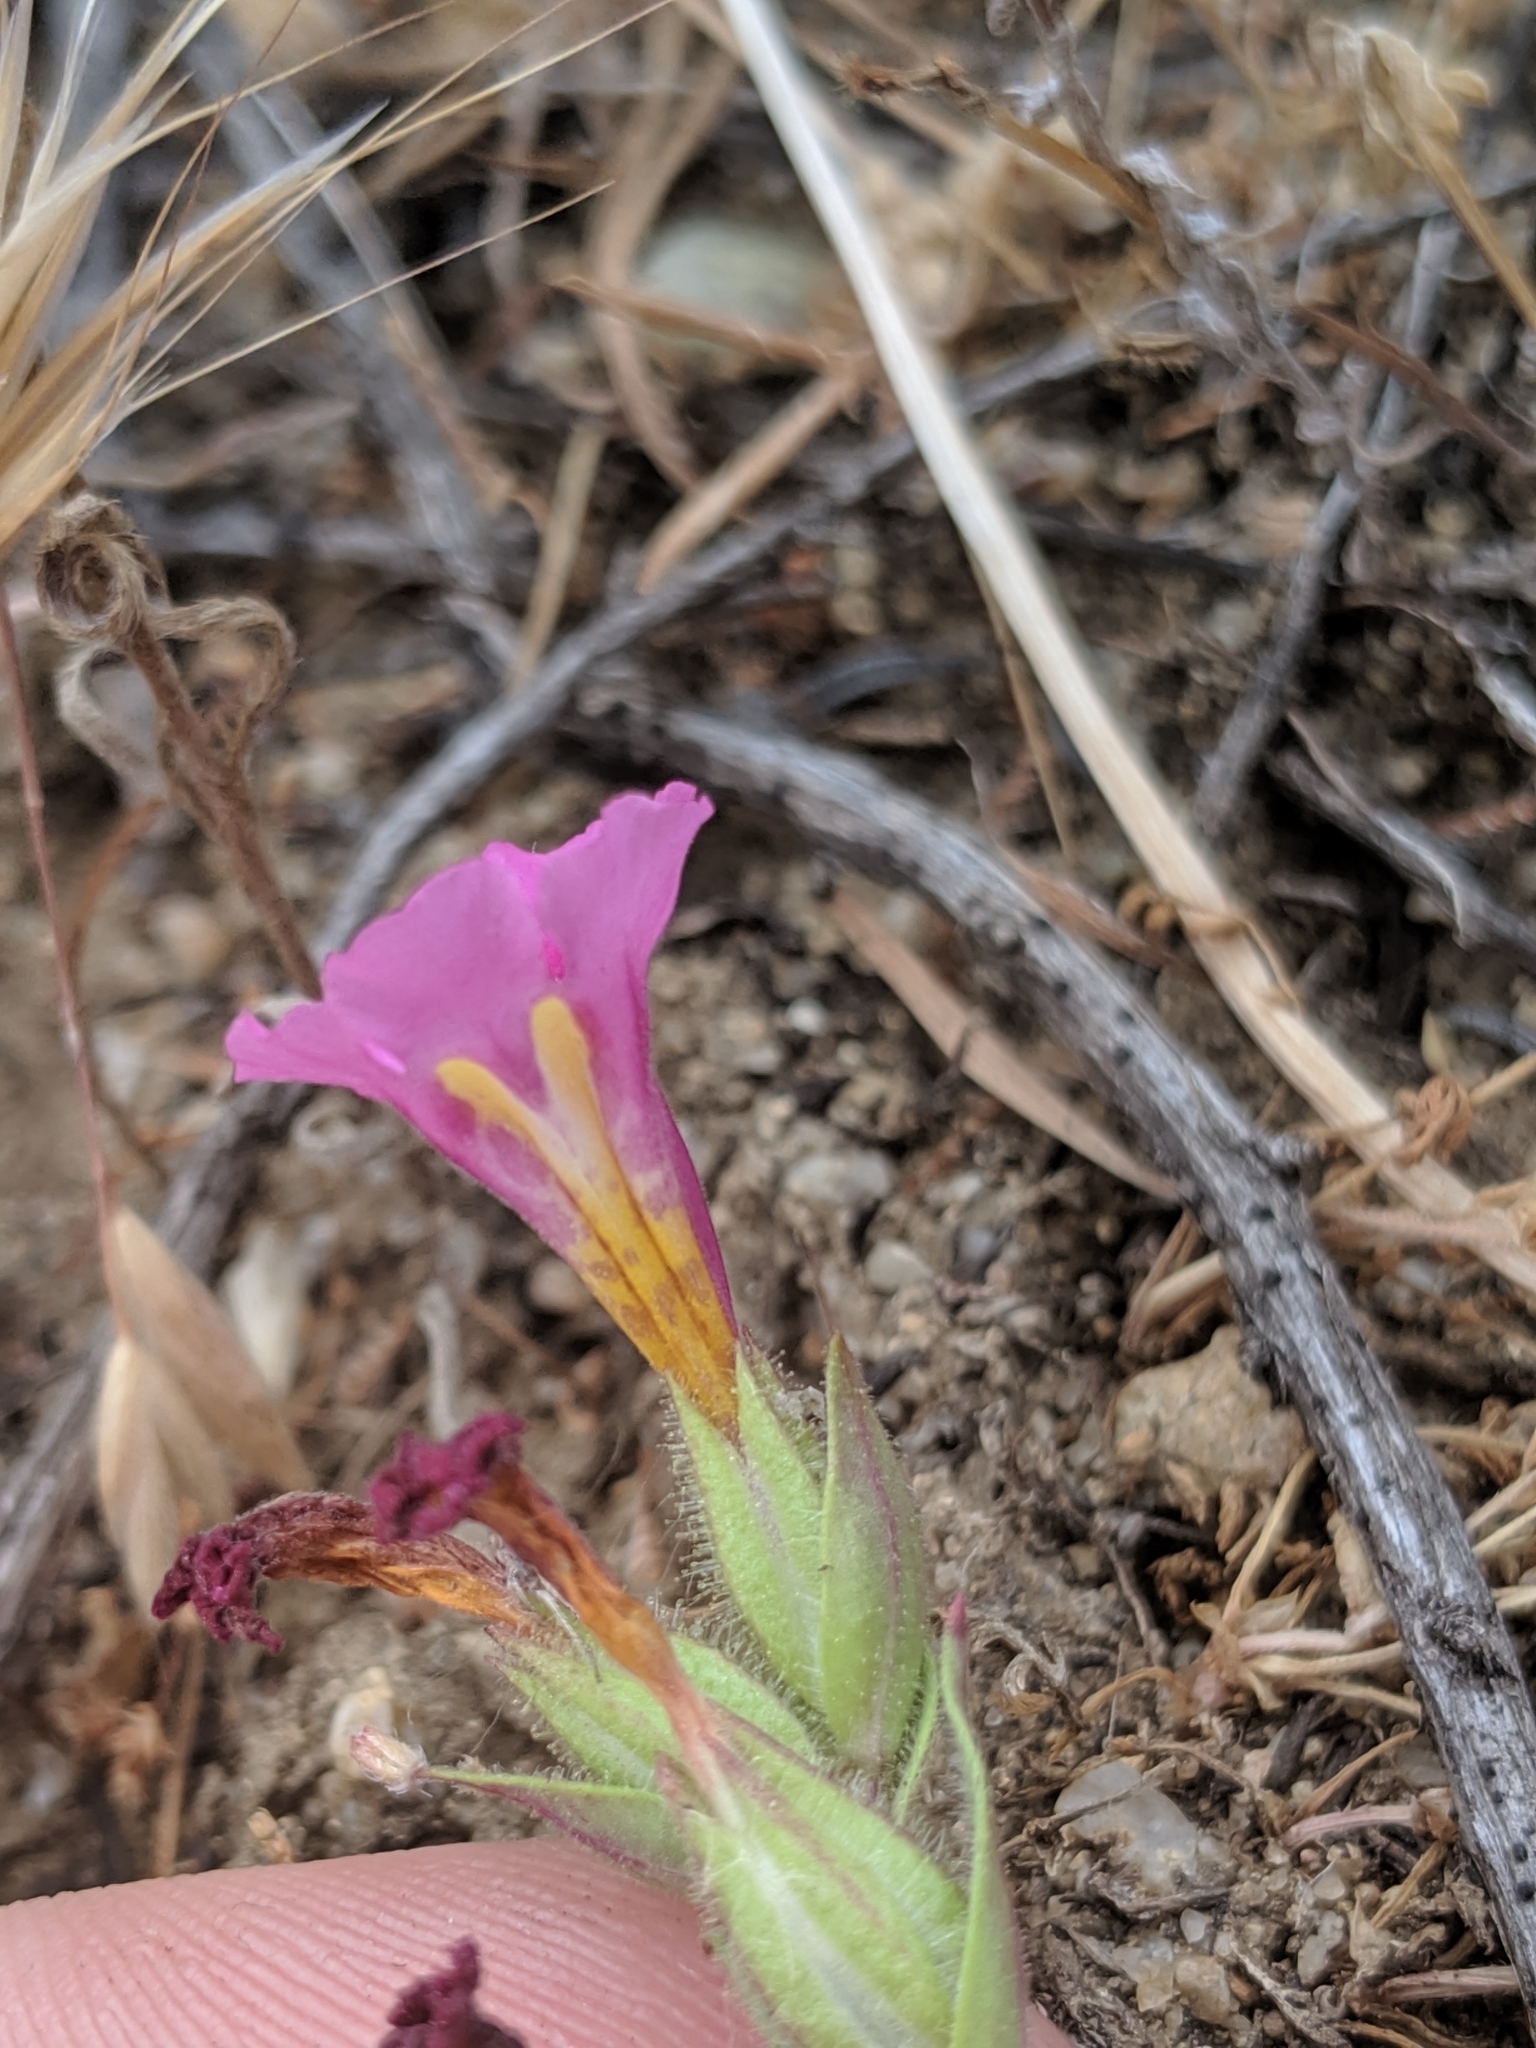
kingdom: Plantae
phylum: Tracheophyta
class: Magnoliopsida
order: Lamiales
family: Phrymaceae
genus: Diplacus
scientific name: Diplacus fremontii
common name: Fremont's monkey-flower
